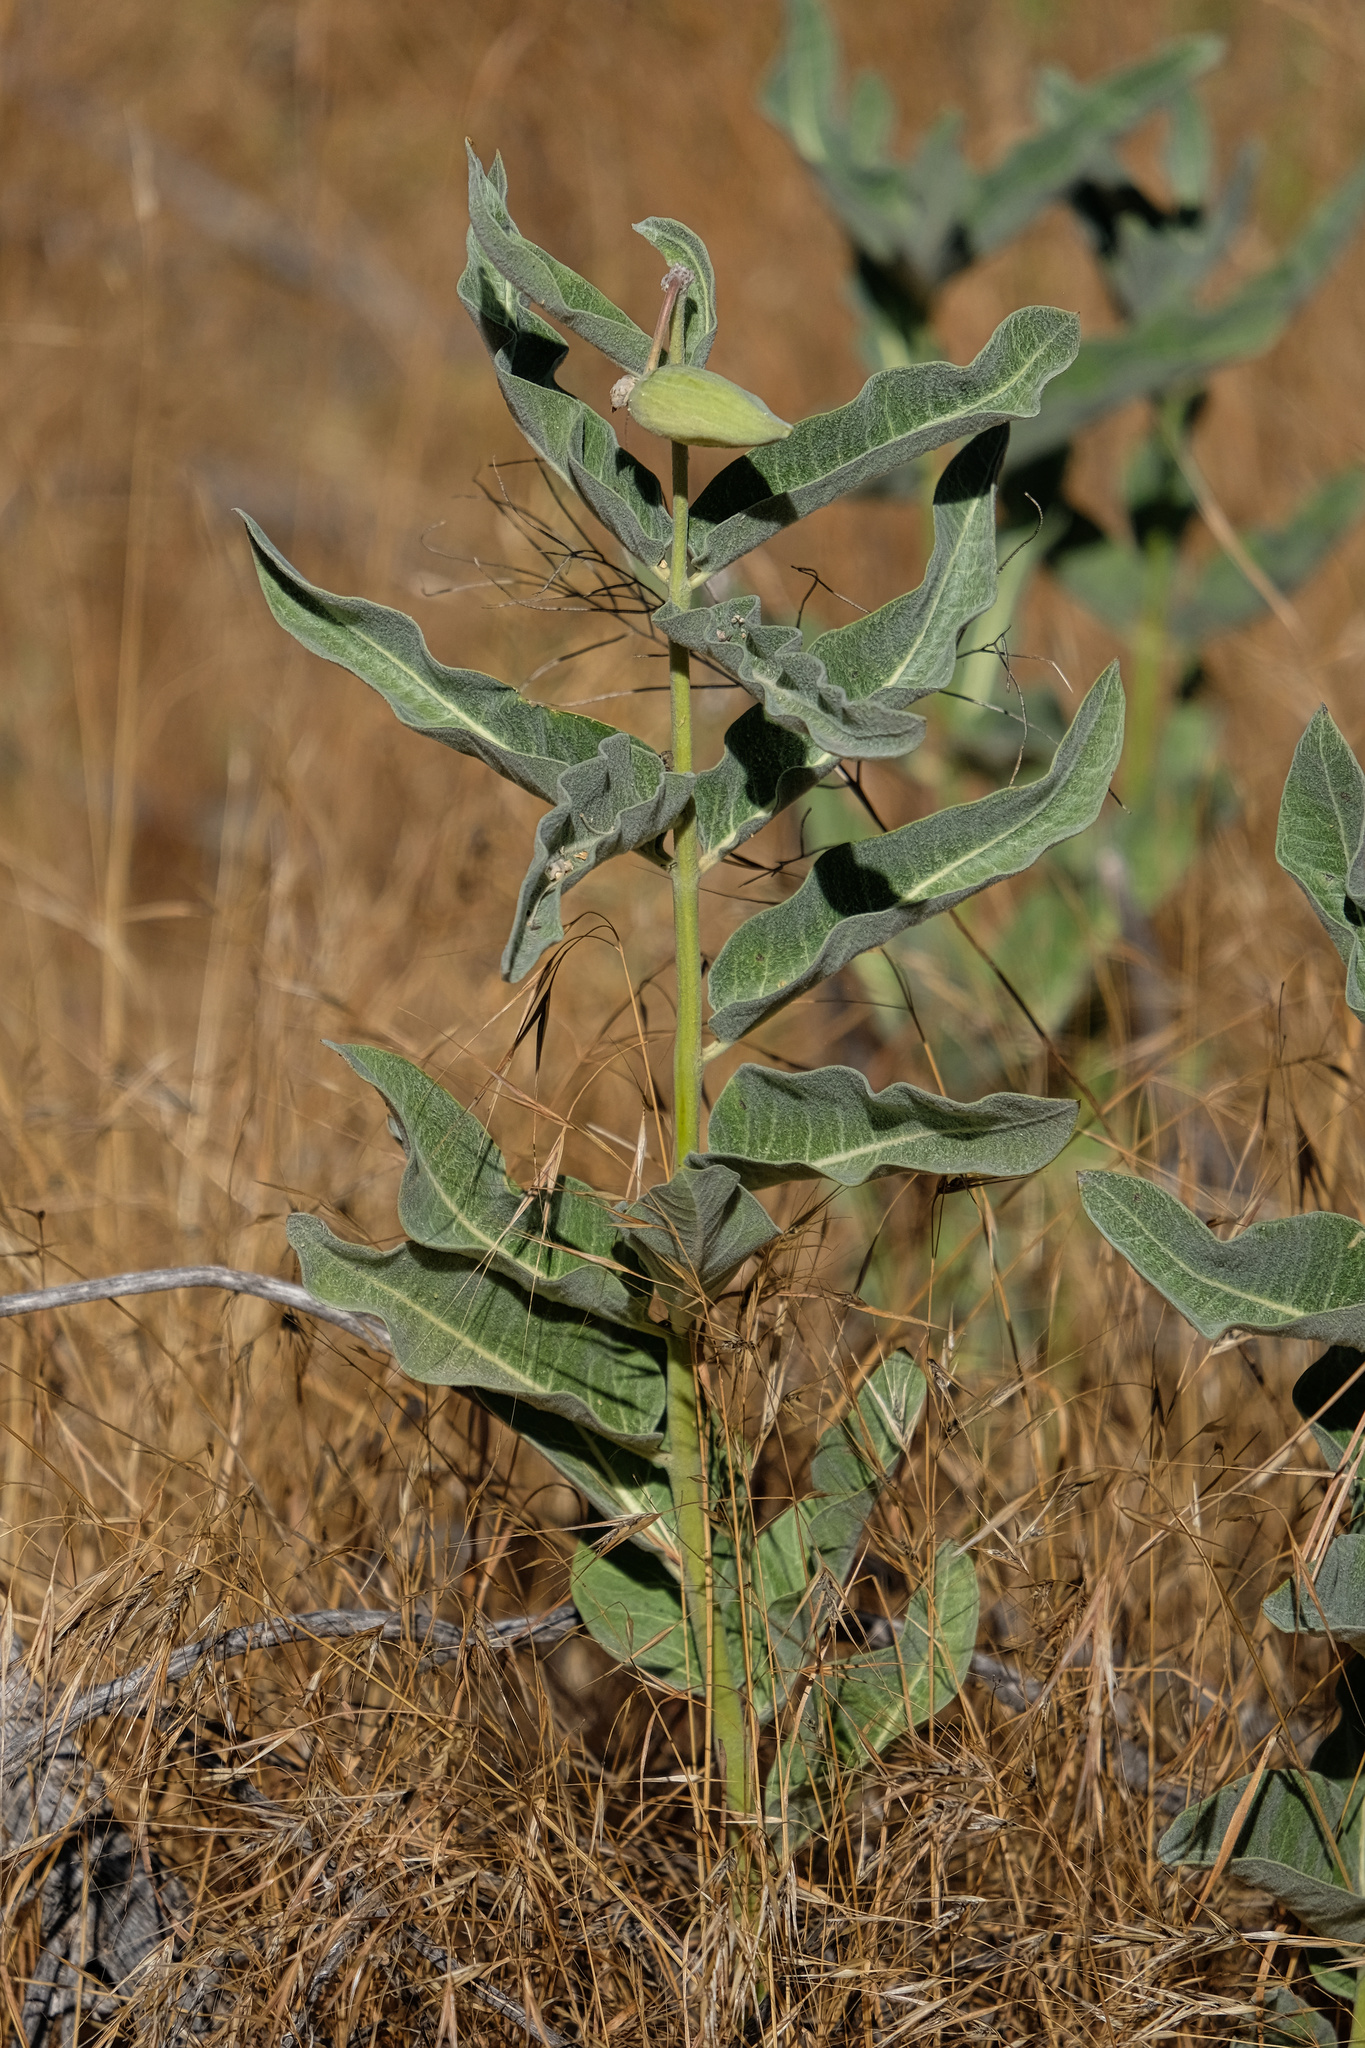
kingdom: Plantae
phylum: Tracheophyta
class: Magnoliopsida
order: Gentianales
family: Apocynaceae
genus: Asclepias
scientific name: Asclepias eriocarpa
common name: Indian milkweed
